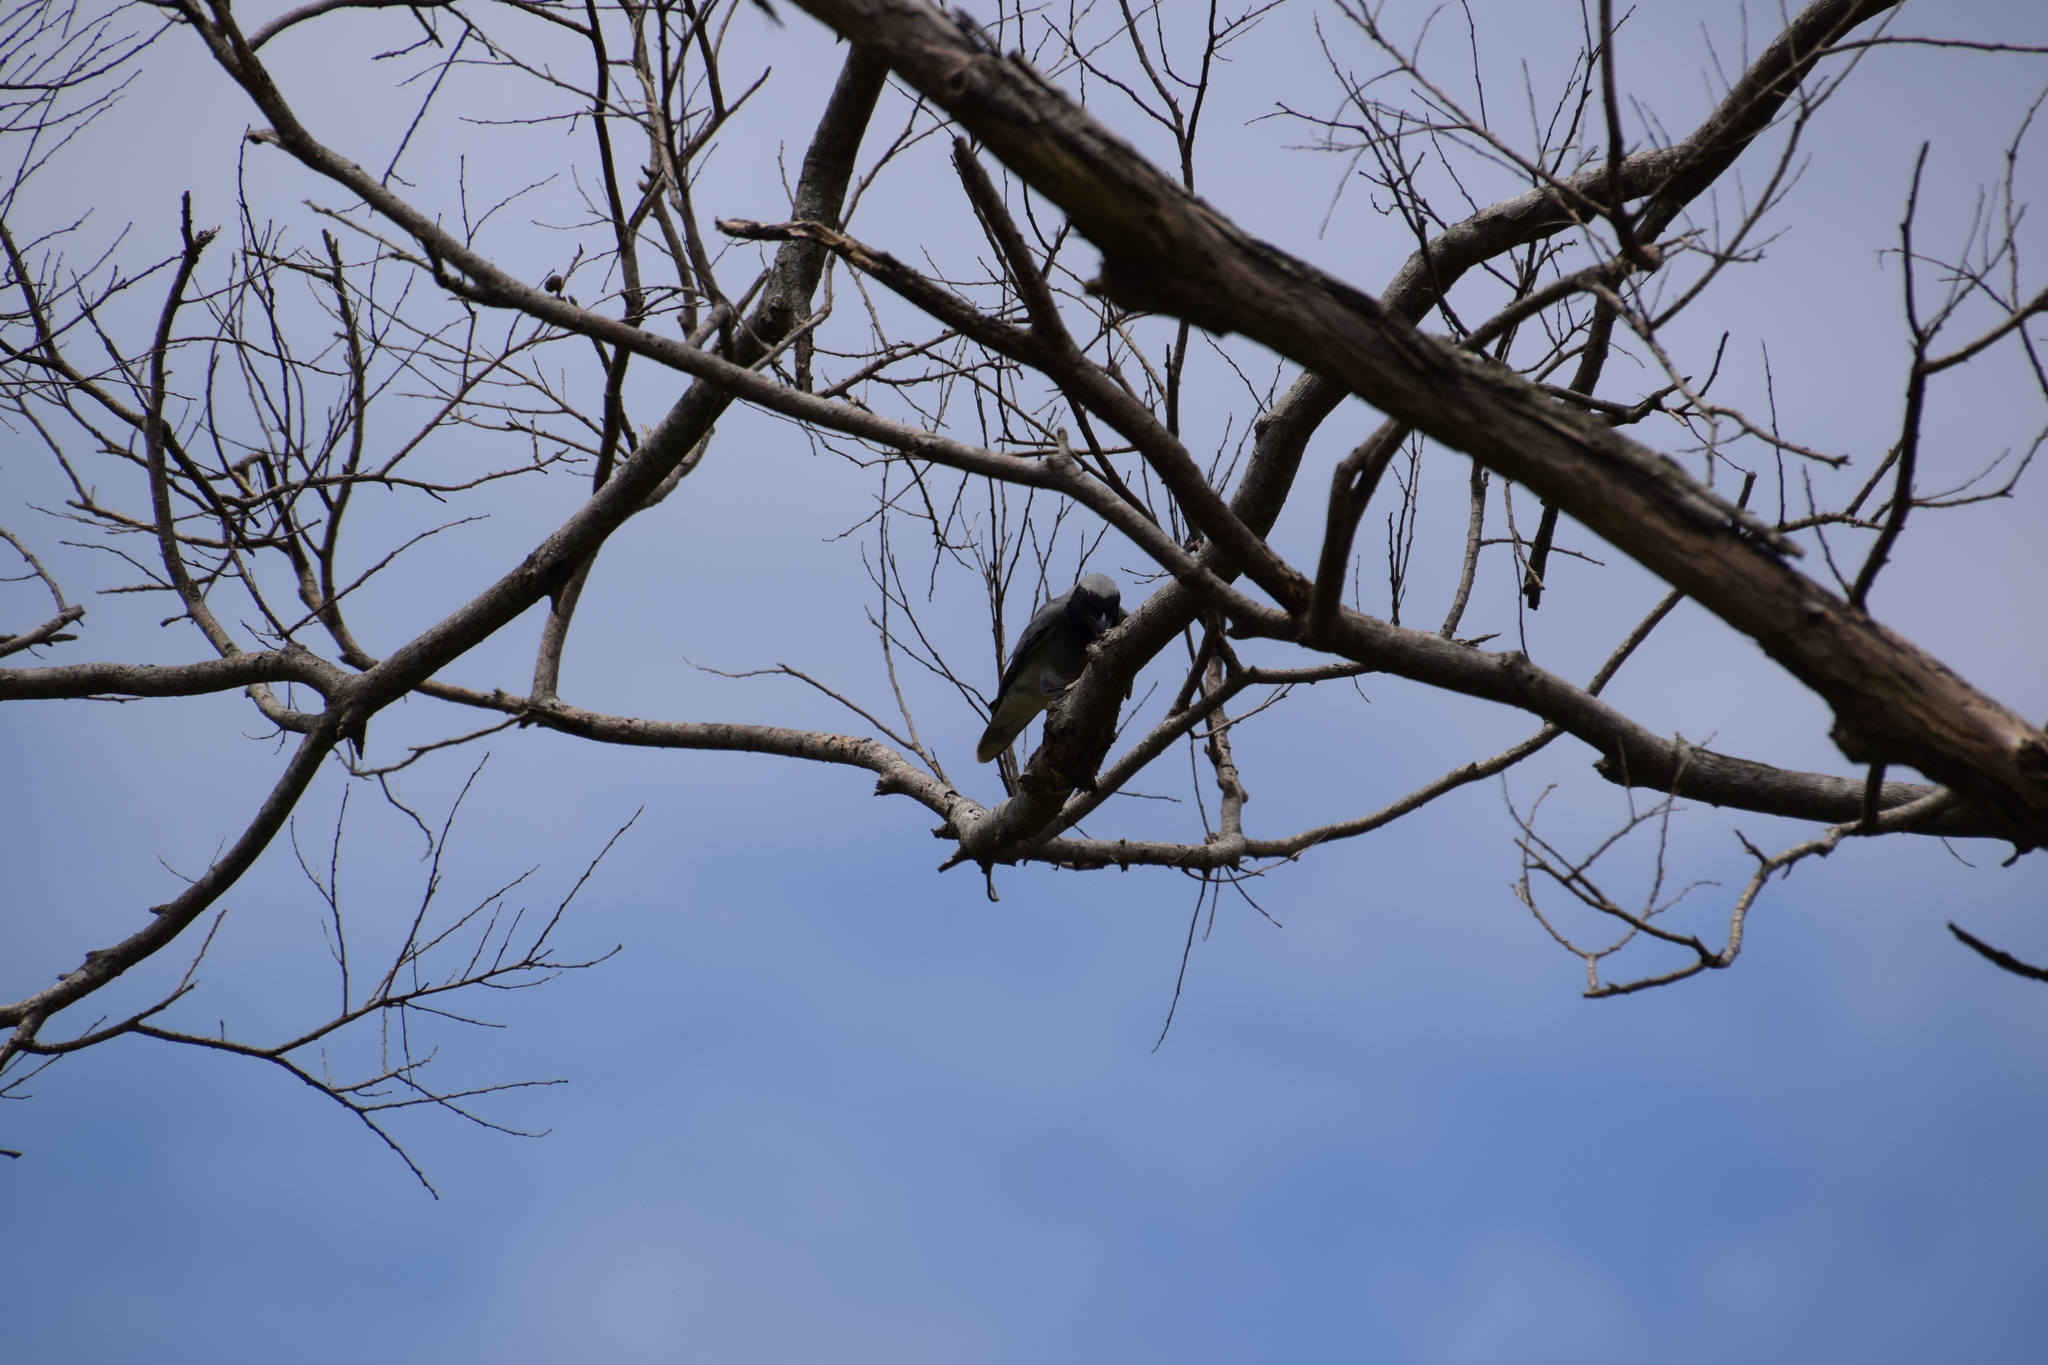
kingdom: Animalia
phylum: Chordata
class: Aves
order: Passeriformes
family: Campephagidae
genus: Coracina
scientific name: Coracina novaehollandiae
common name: Black-faced cuckooshrike
